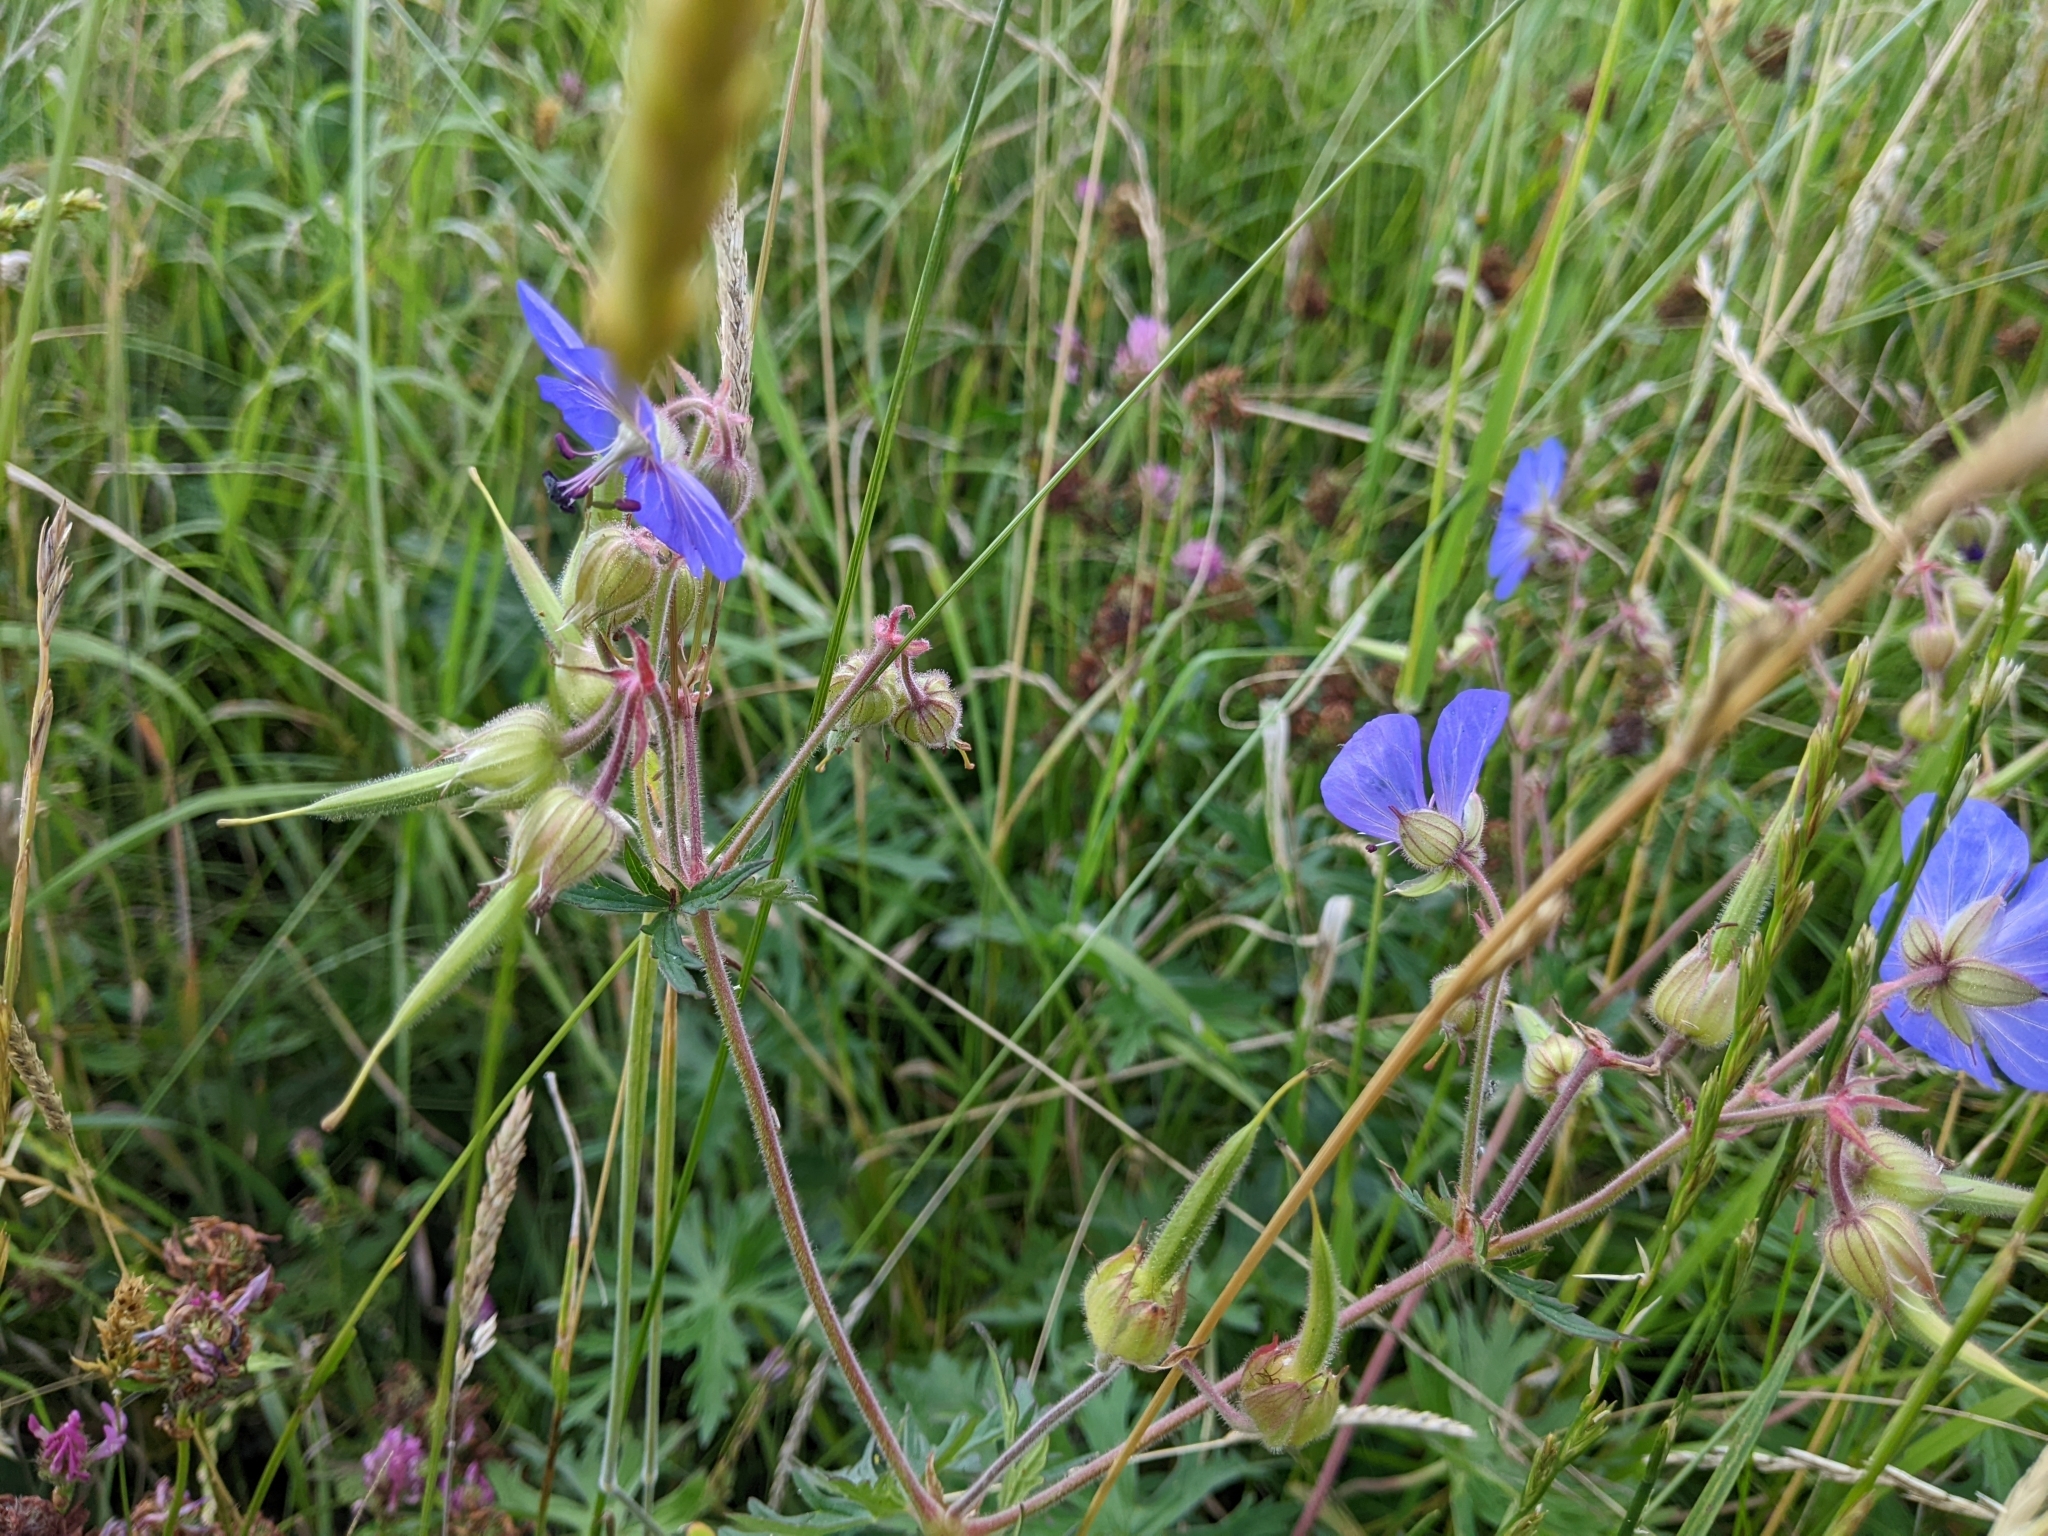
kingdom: Plantae
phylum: Tracheophyta
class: Magnoliopsida
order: Geraniales
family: Geraniaceae
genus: Geranium
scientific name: Geranium pratense
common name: Meadow crane's-bill
